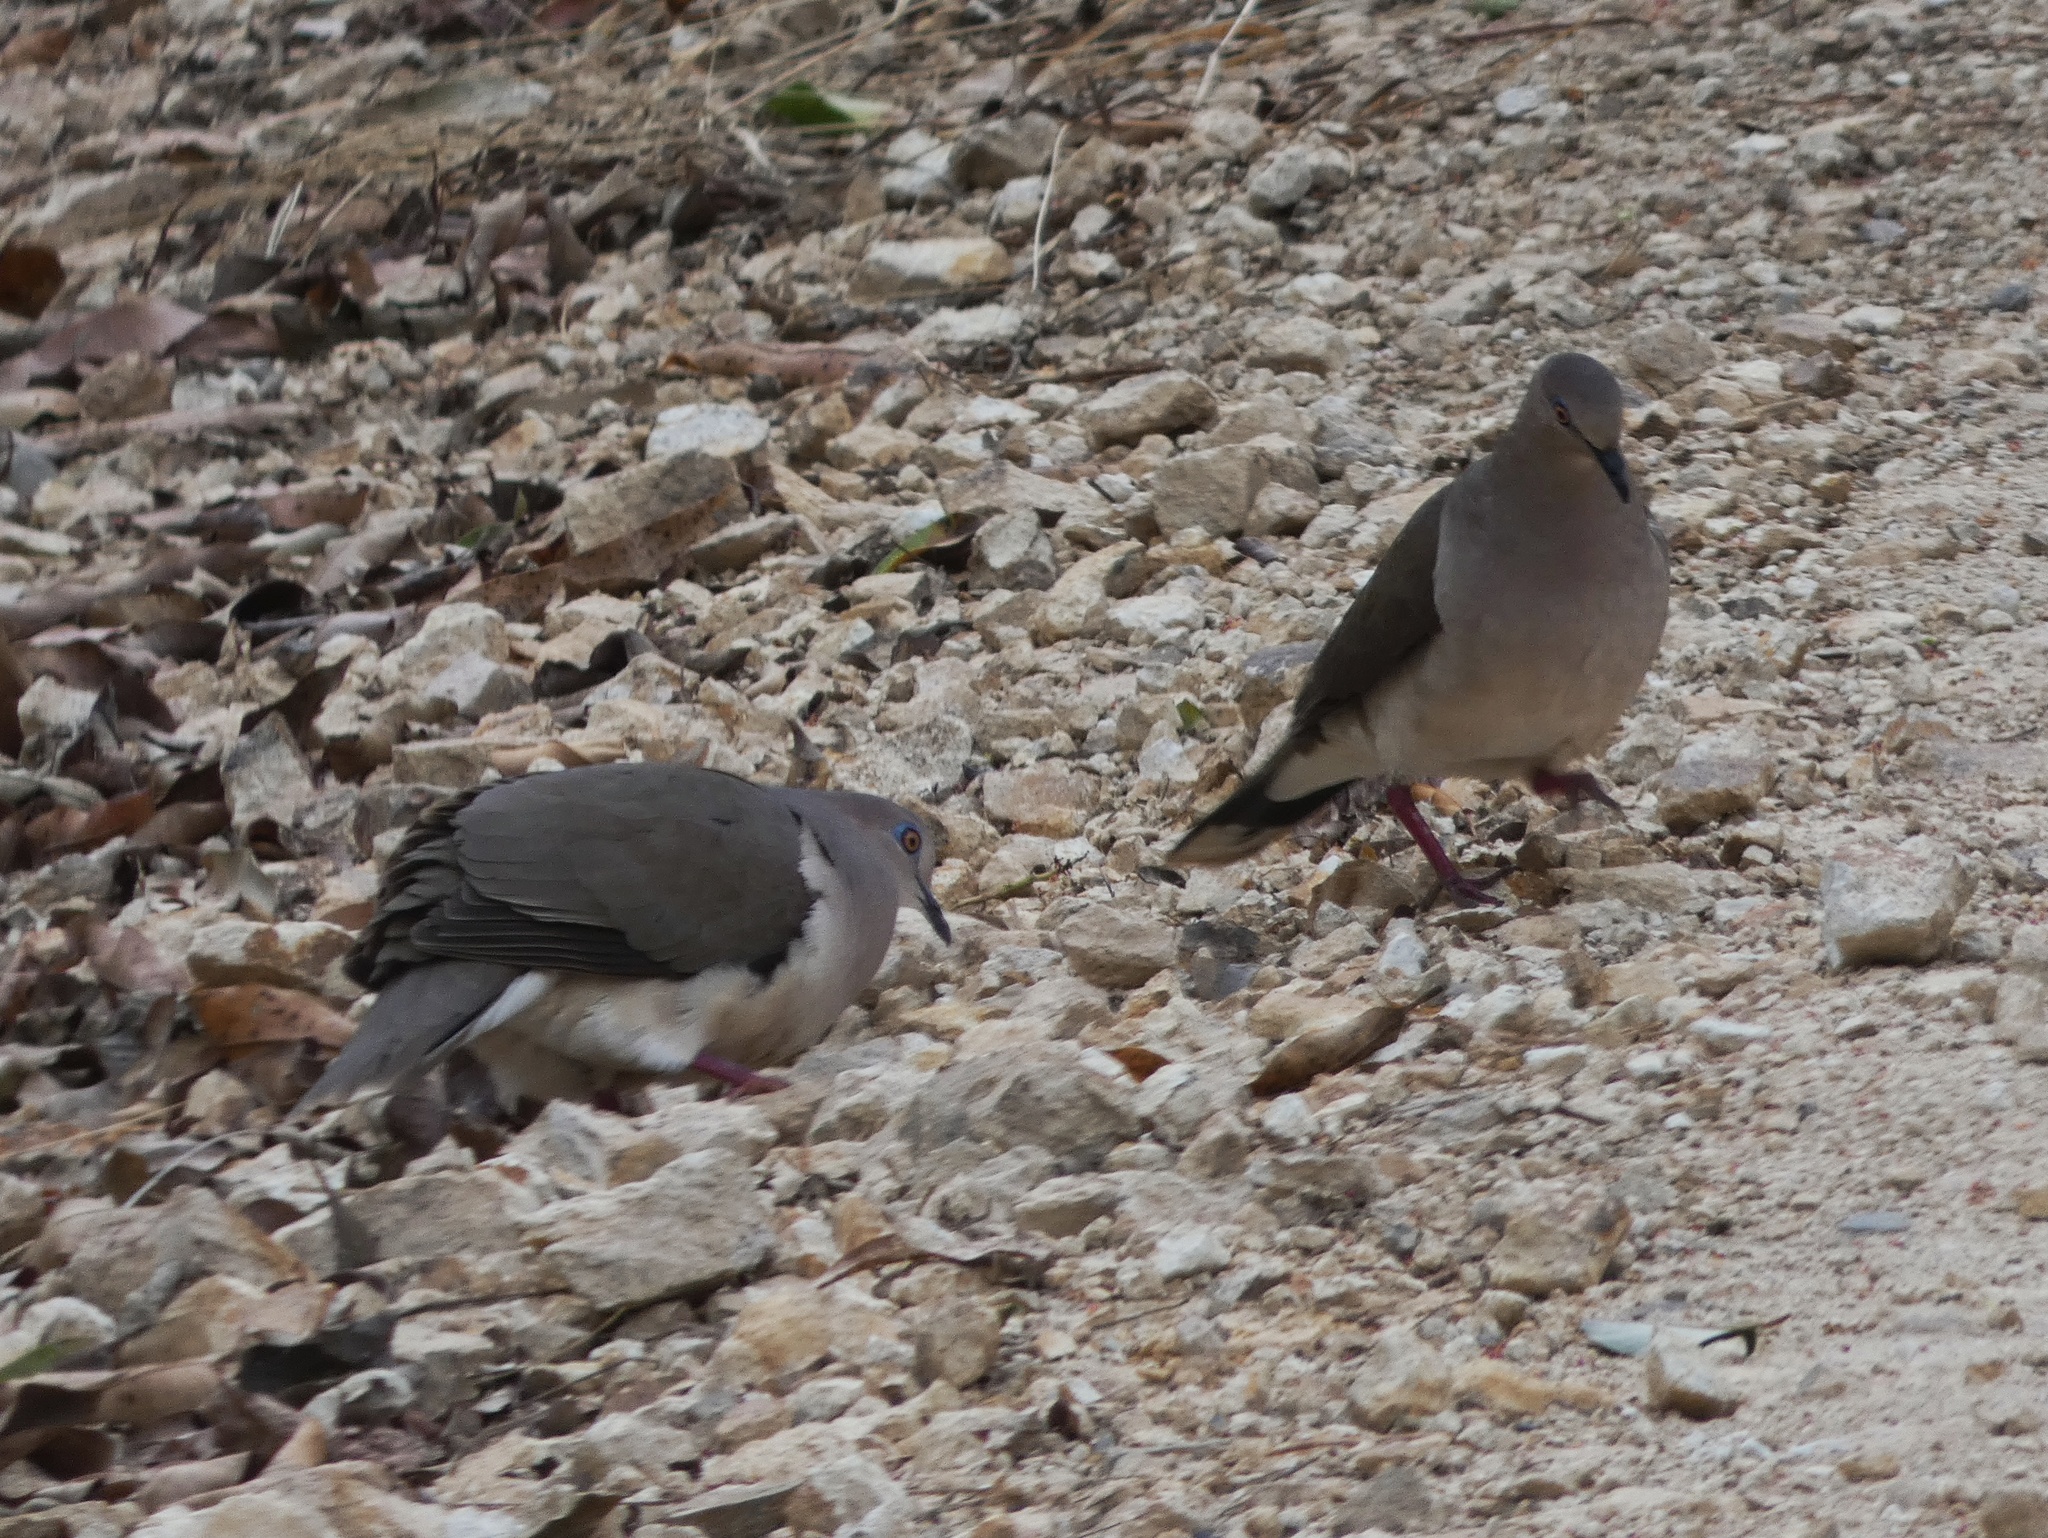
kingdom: Animalia
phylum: Chordata
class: Aves
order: Columbiformes
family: Columbidae
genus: Leptotila
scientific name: Leptotila verreauxi
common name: White-tipped dove
